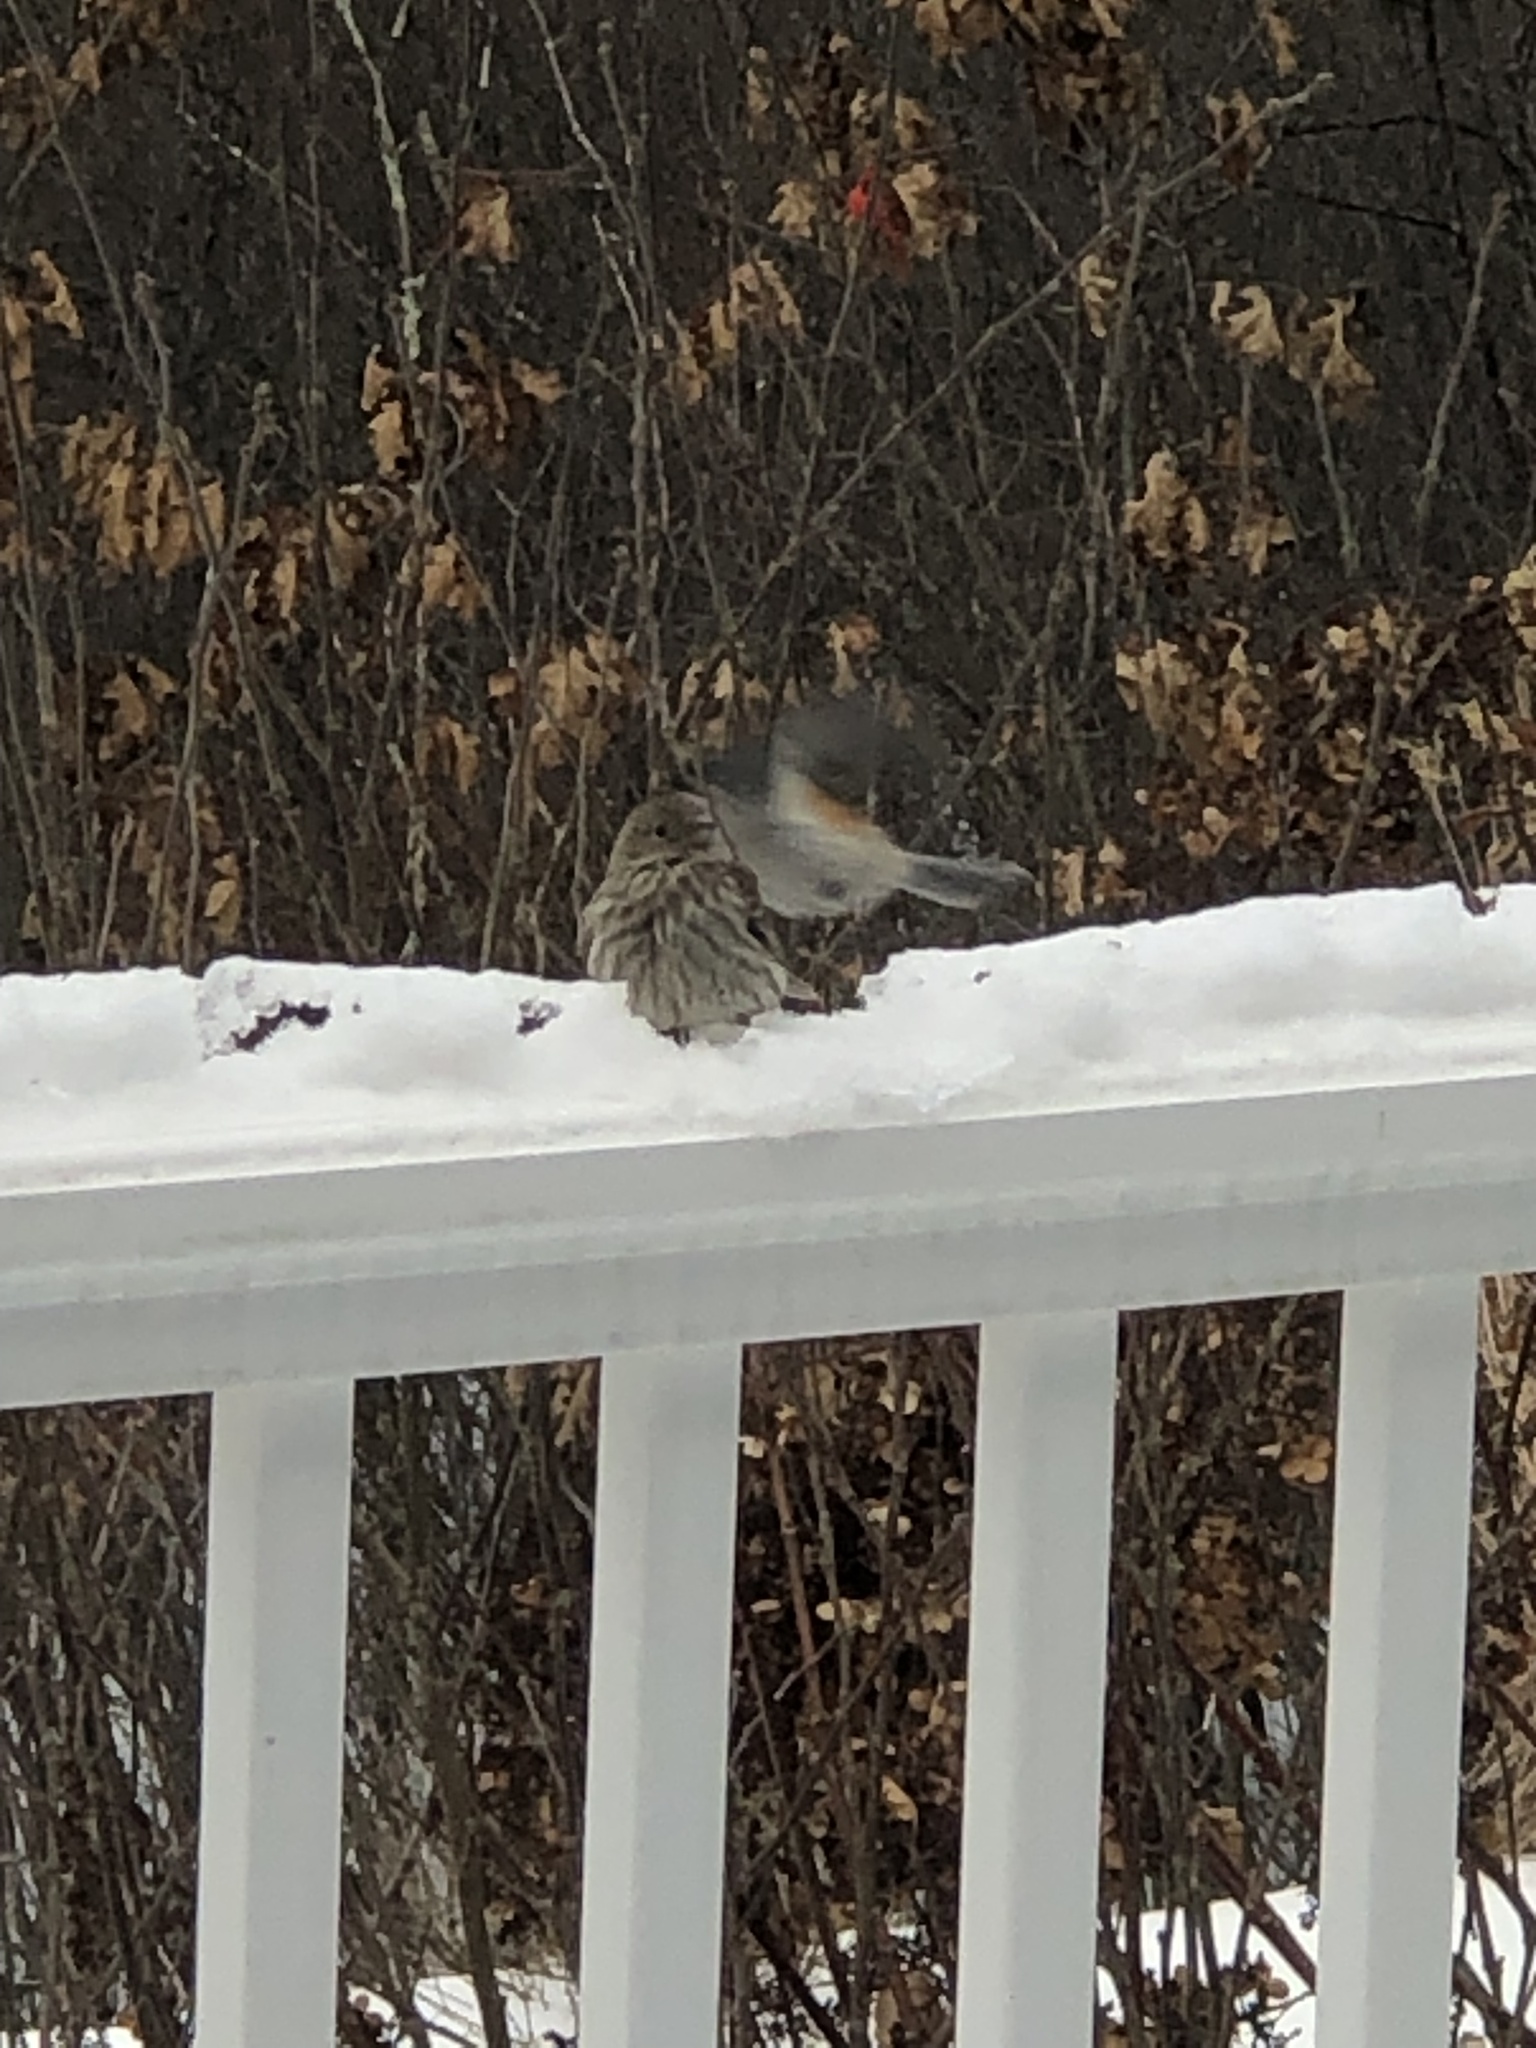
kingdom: Animalia
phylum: Chordata
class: Aves
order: Passeriformes
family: Fringillidae
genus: Haemorhous
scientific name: Haemorhous mexicanus
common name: House finch
